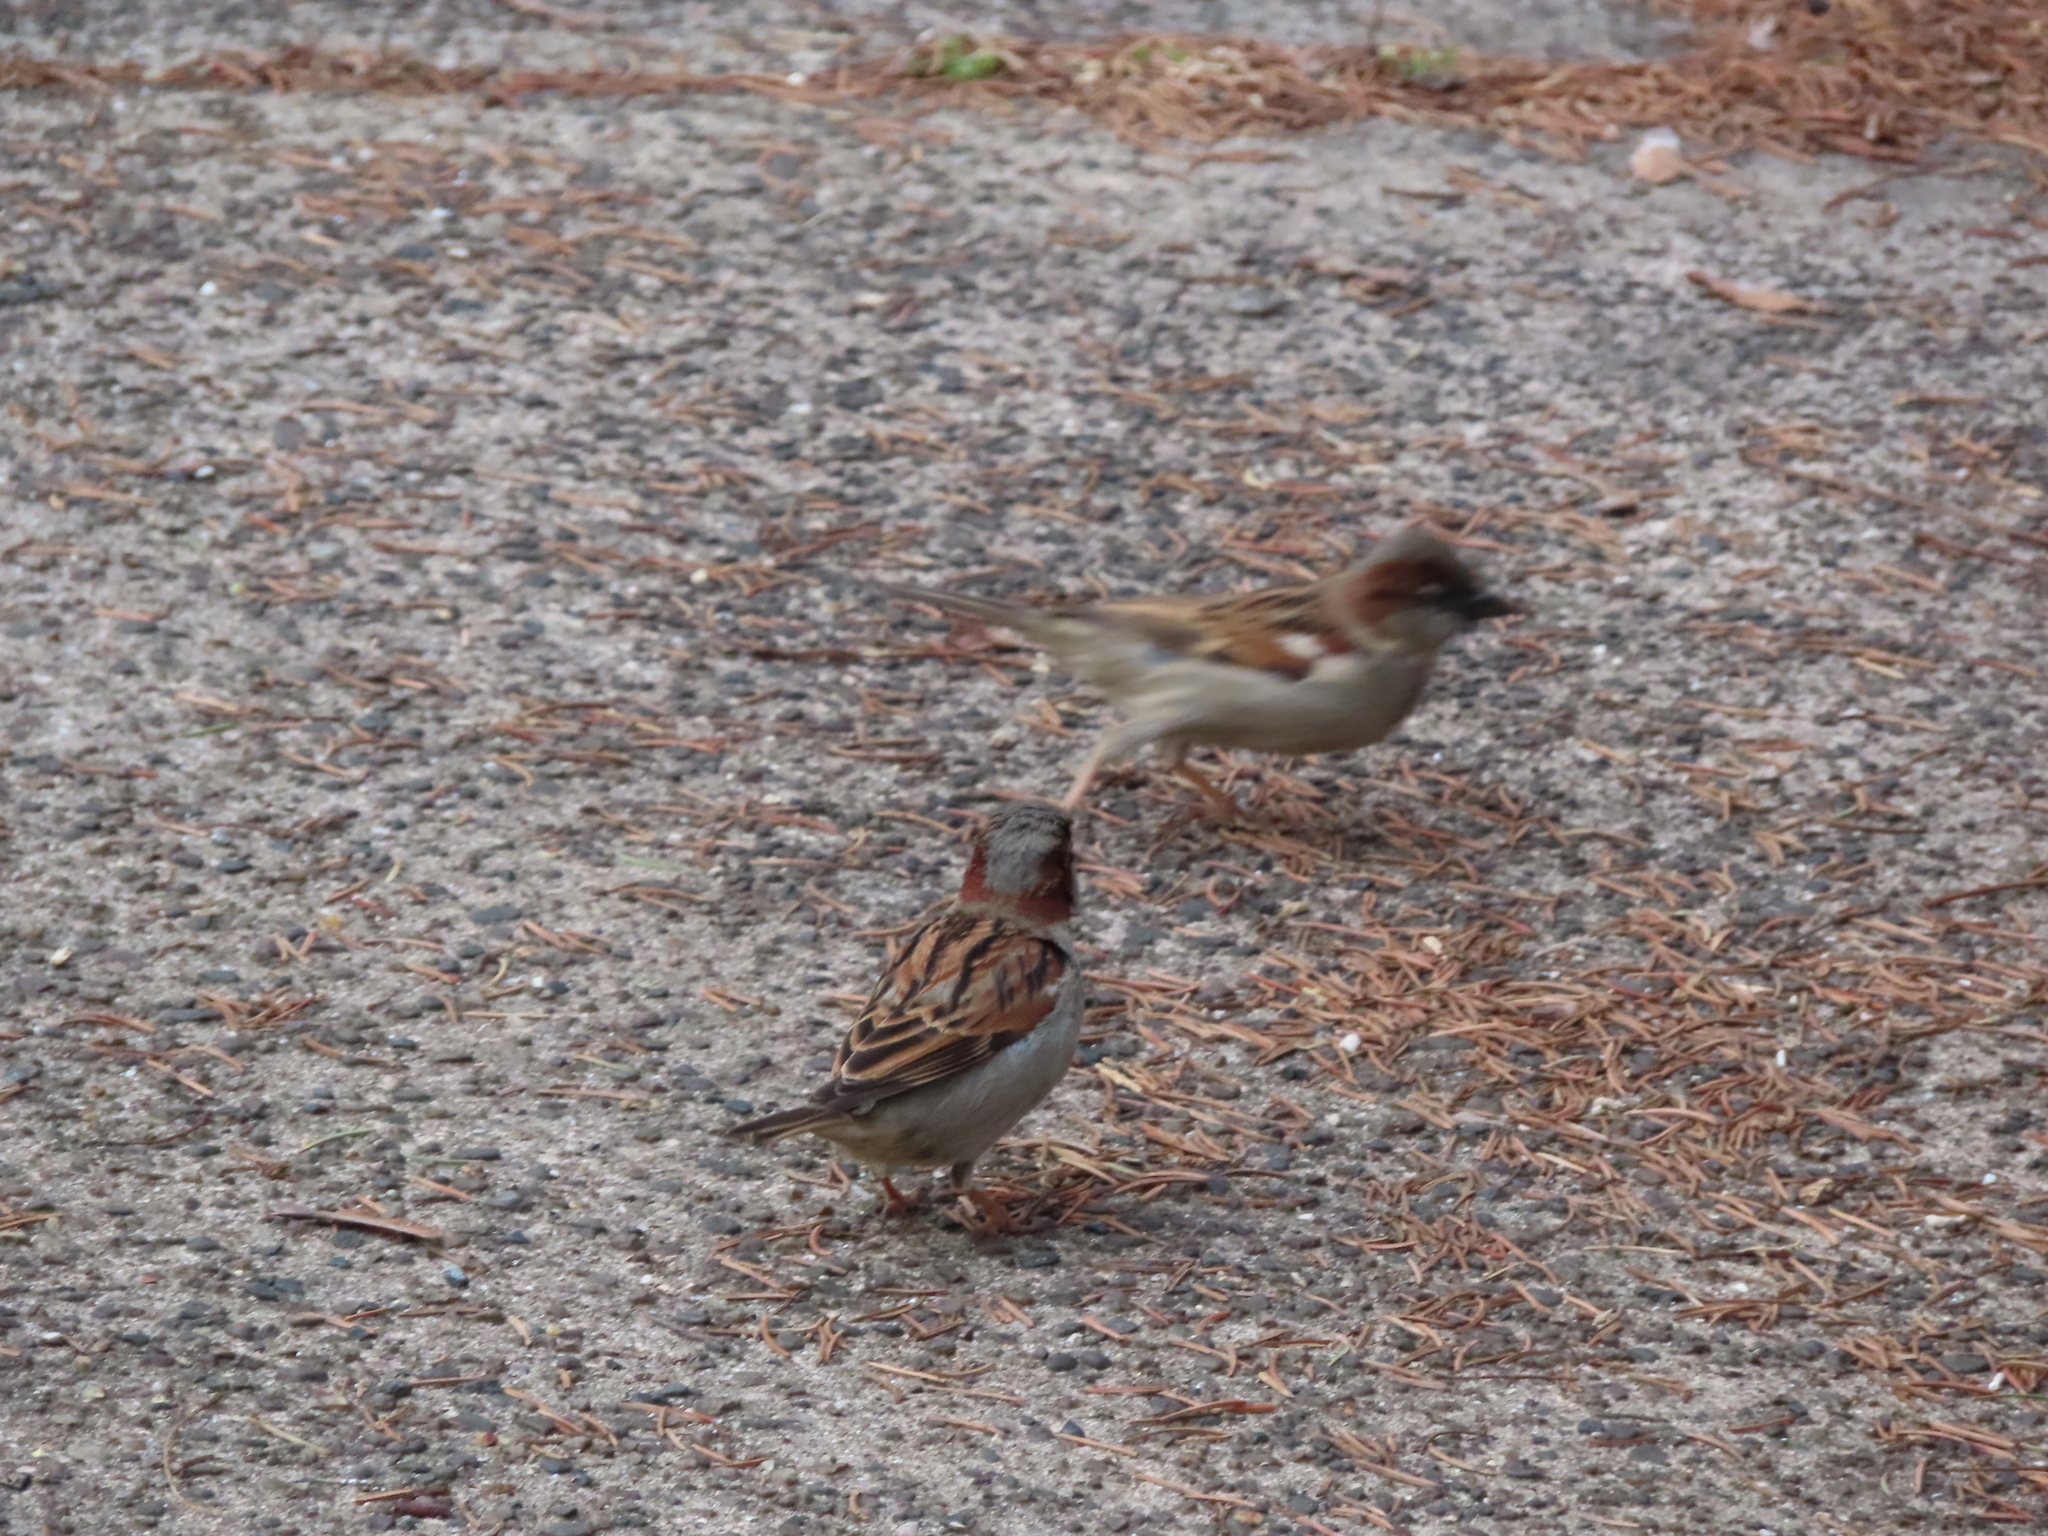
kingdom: Animalia
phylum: Chordata
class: Aves
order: Passeriformes
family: Passeridae
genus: Passer
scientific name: Passer domesticus
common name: House sparrow
